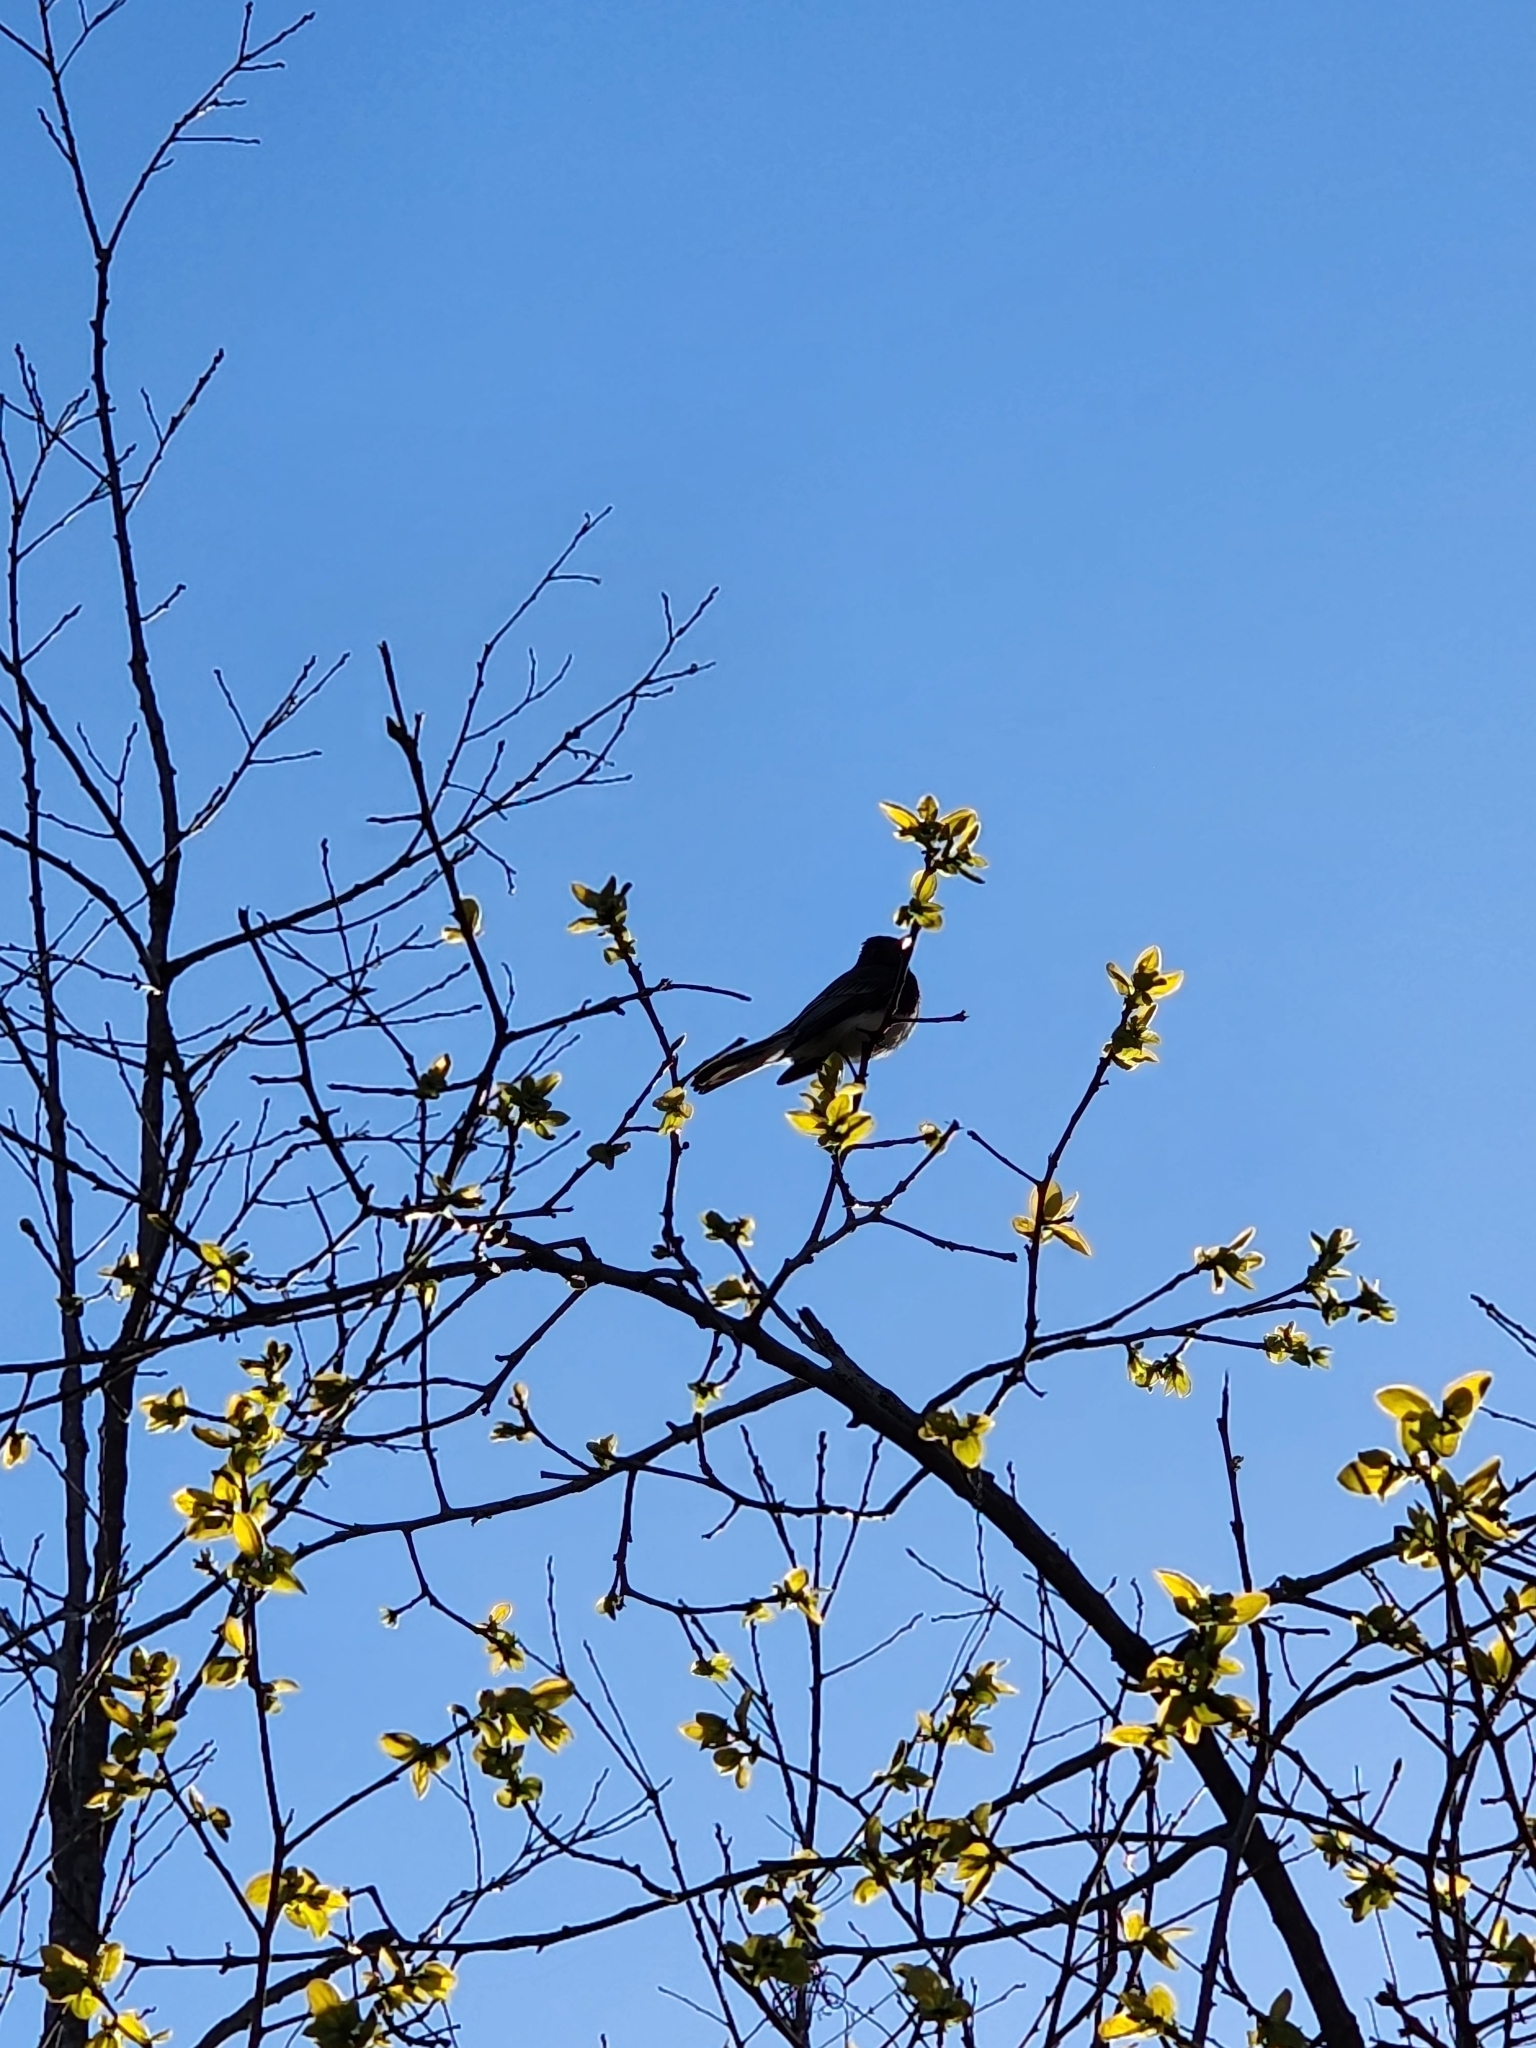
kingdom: Animalia
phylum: Chordata
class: Aves
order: Passeriformes
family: Tyrannidae
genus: Sayornis
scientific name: Sayornis nigricans
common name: Black phoebe
